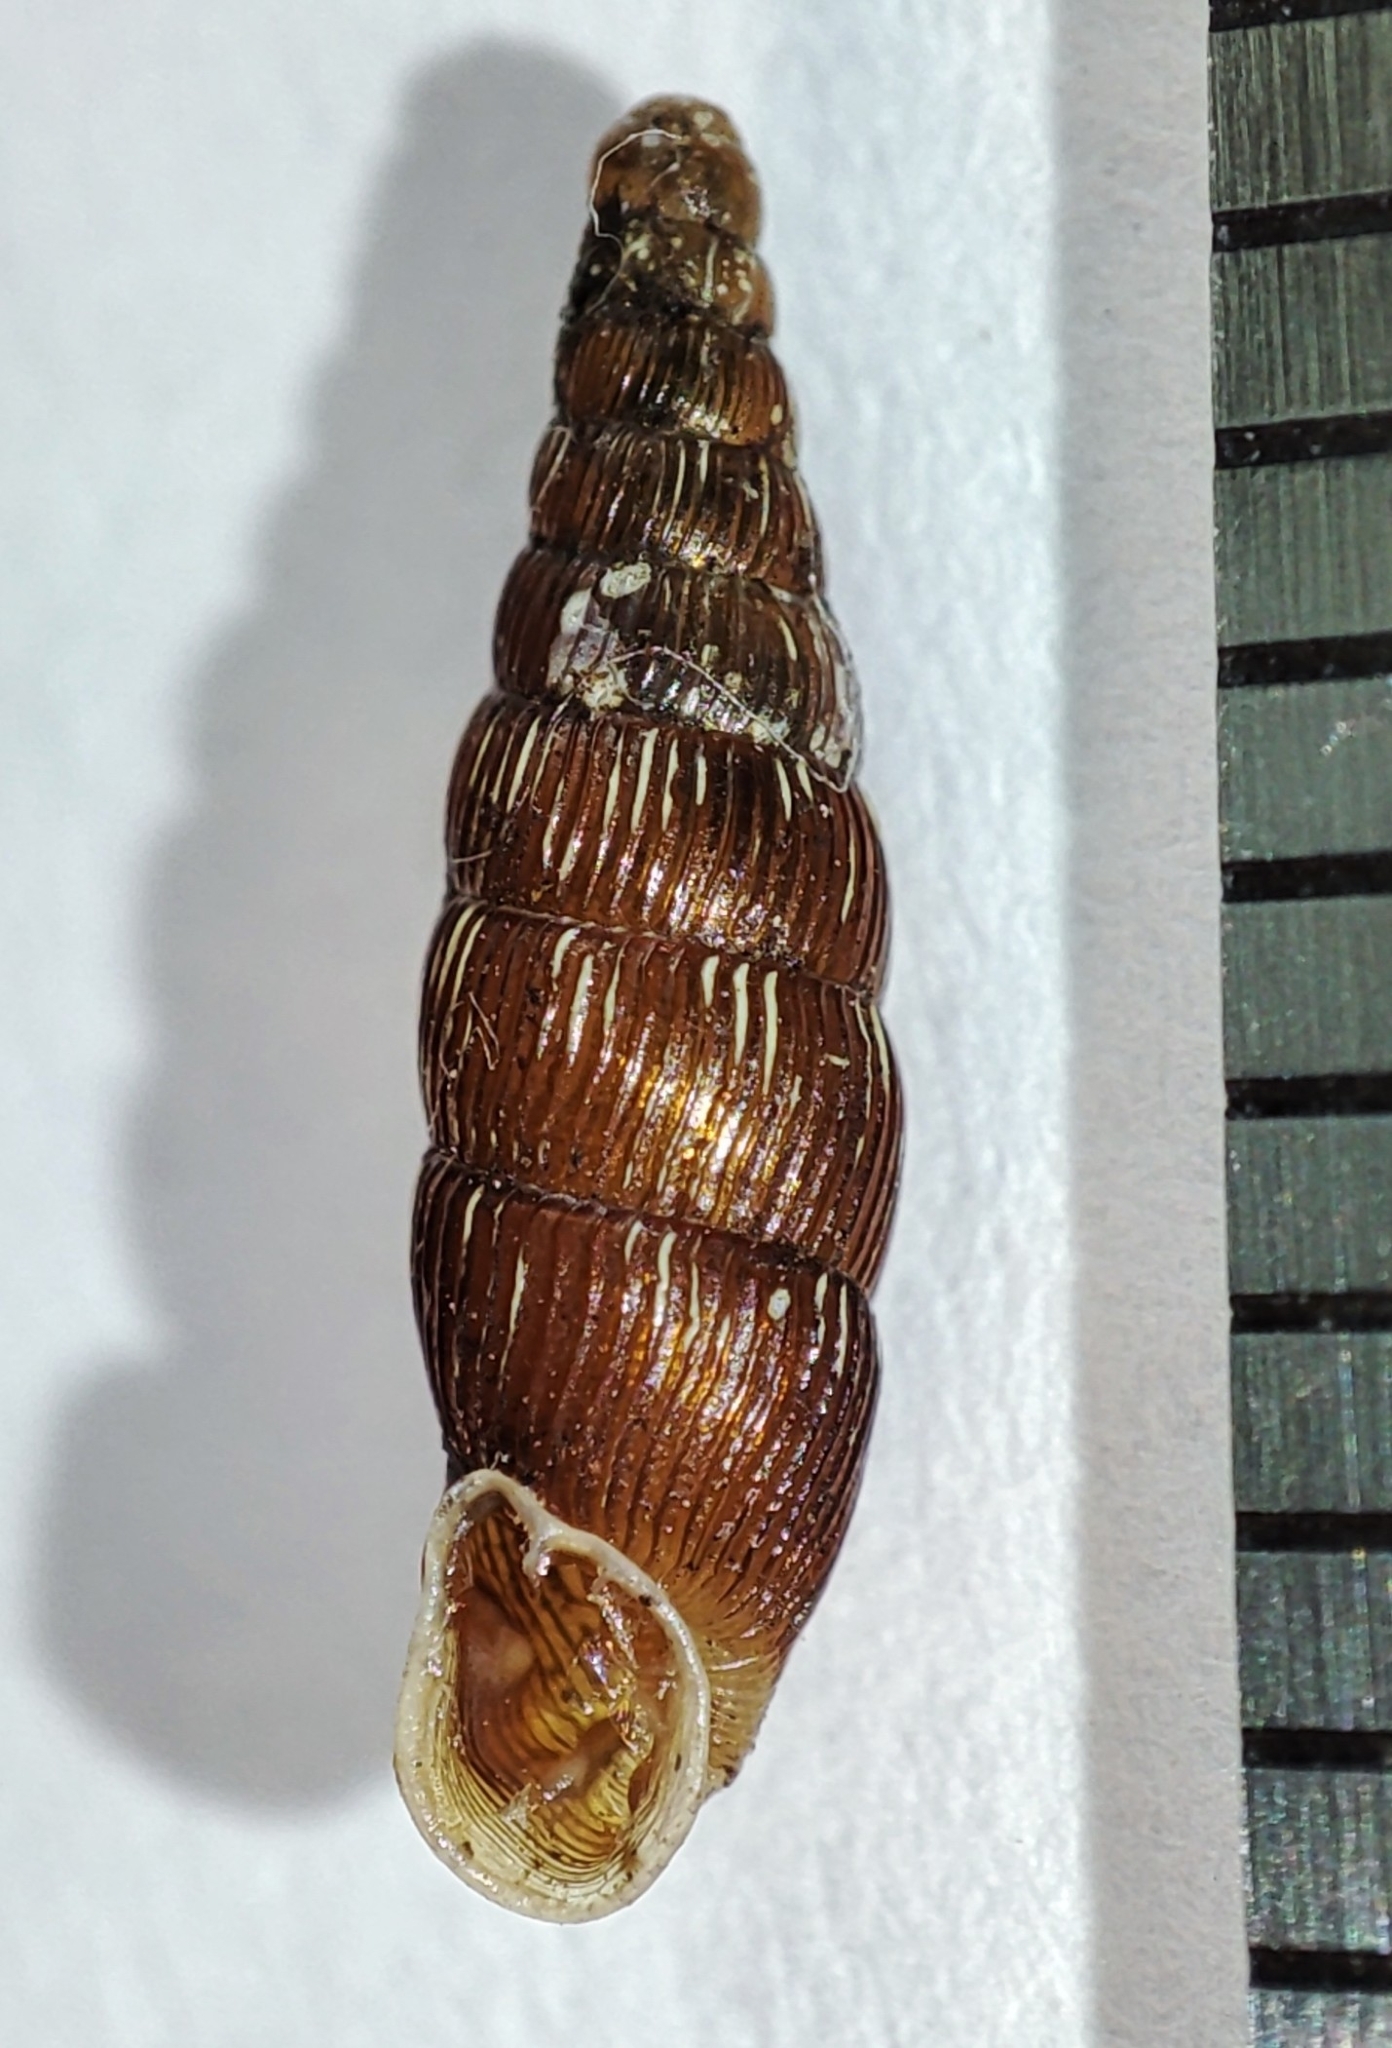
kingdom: Animalia
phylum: Mollusca
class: Gastropoda
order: Stylommatophora
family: Clausiliidae
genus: Clausilia
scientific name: Clausilia cruciata
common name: Sharp-ribbed door snail
